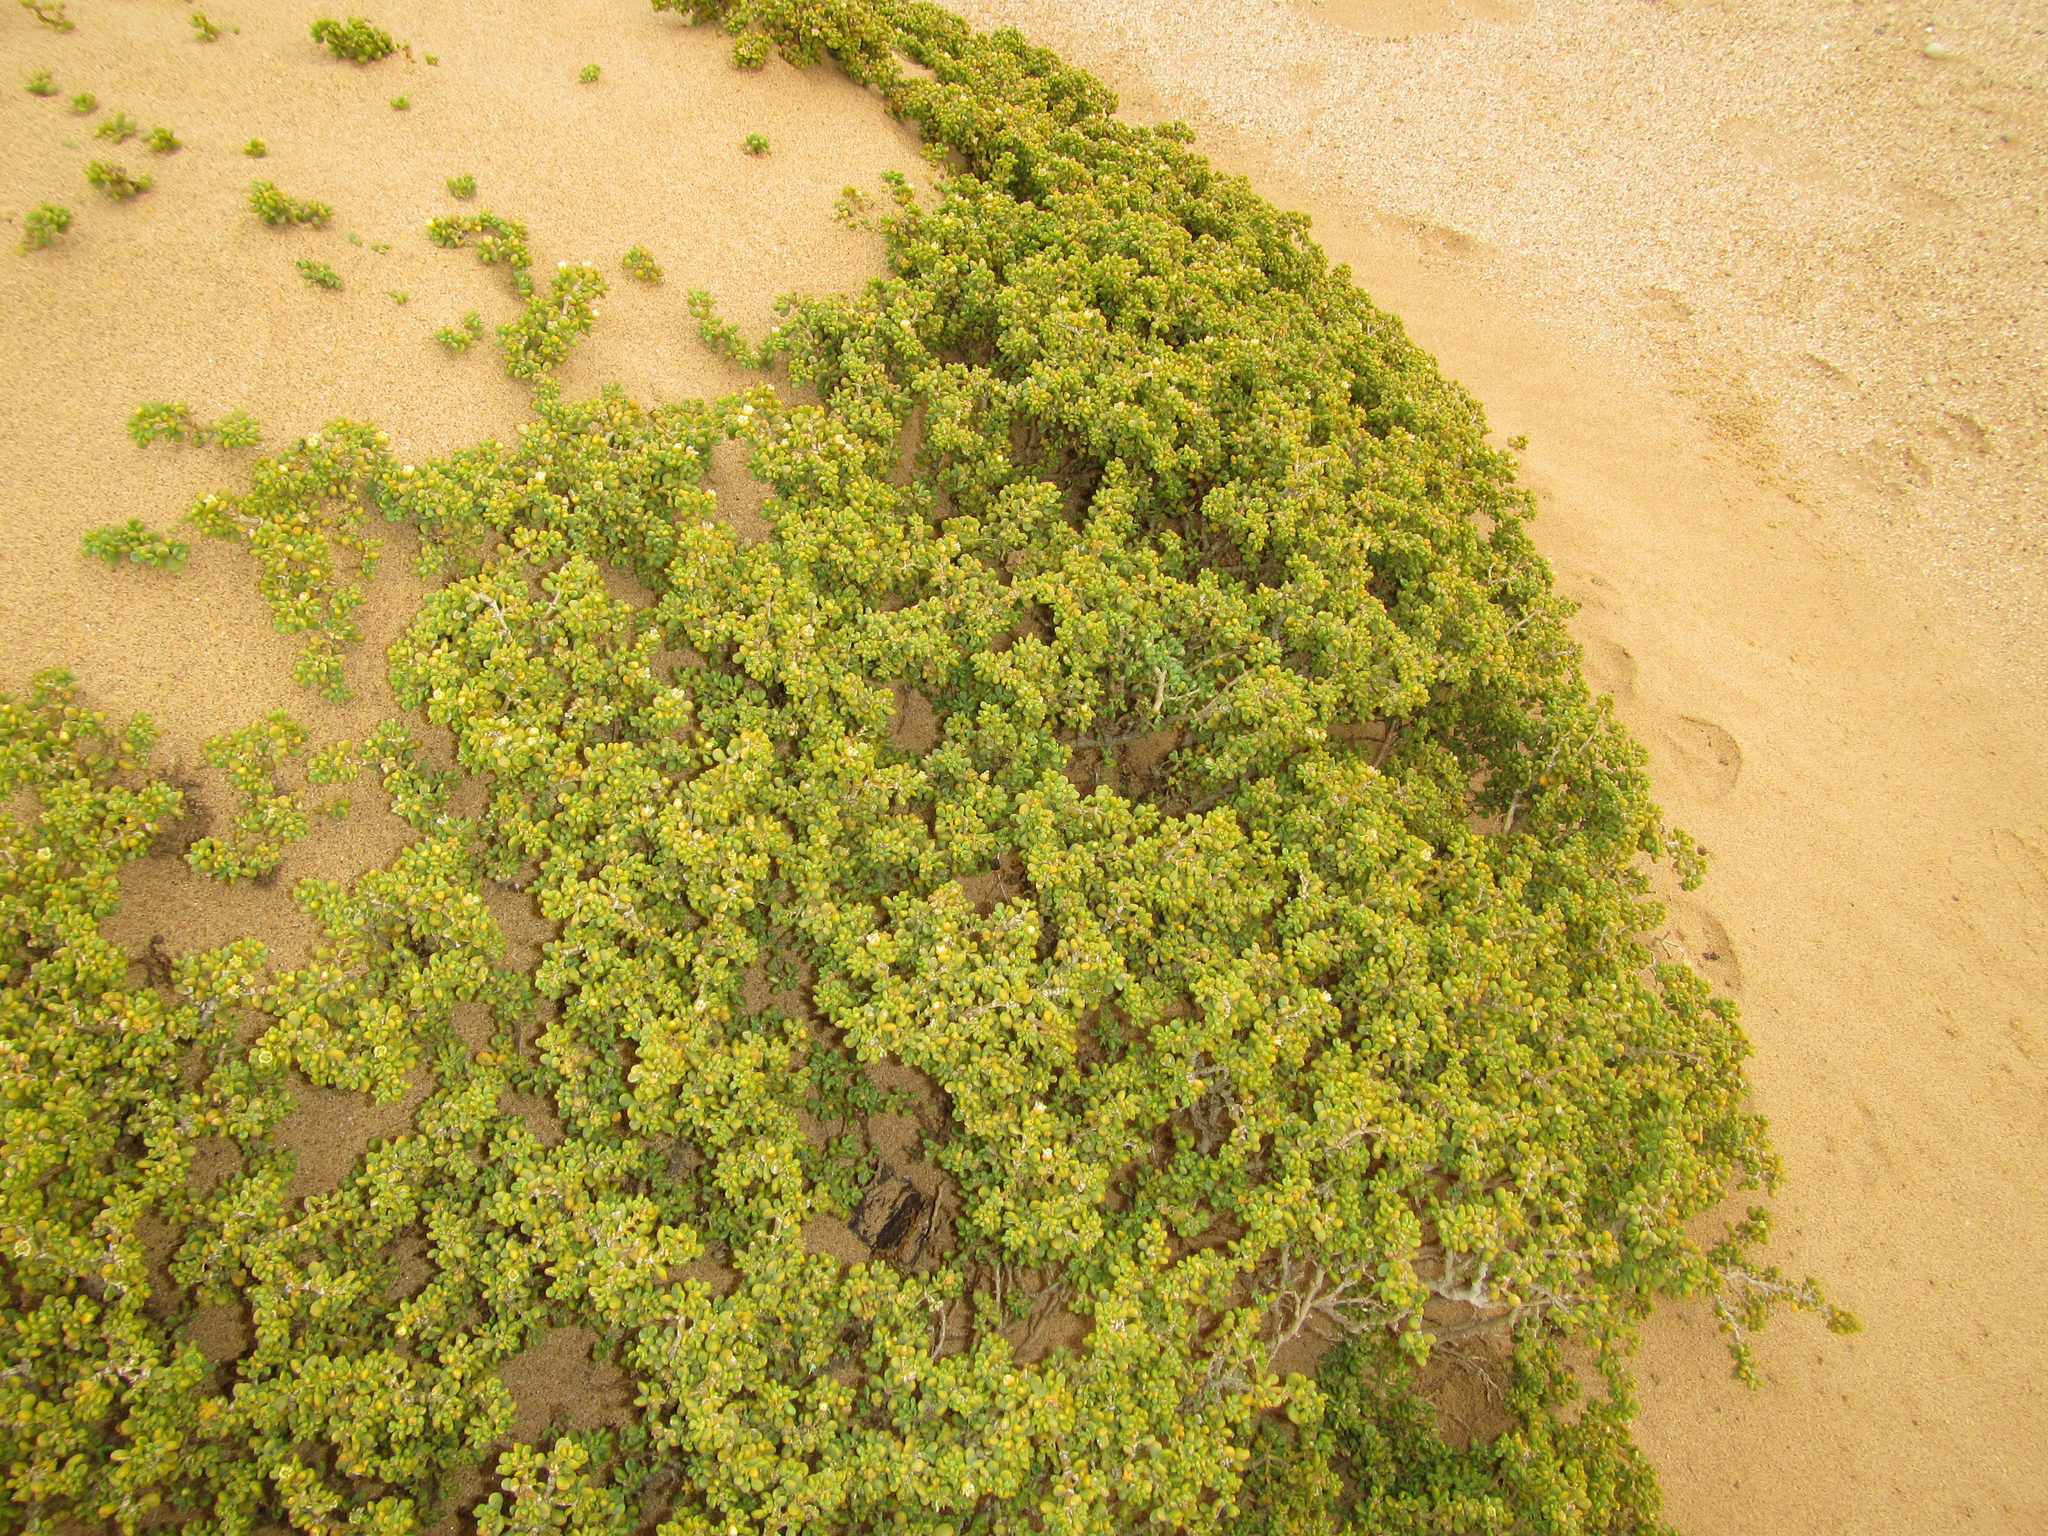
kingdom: Plantae
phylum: Tracheophyta
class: Magnoliopsida
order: Zygophyllales
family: Zygophyllaceae
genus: Tetraena
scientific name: Tetraena clavata
